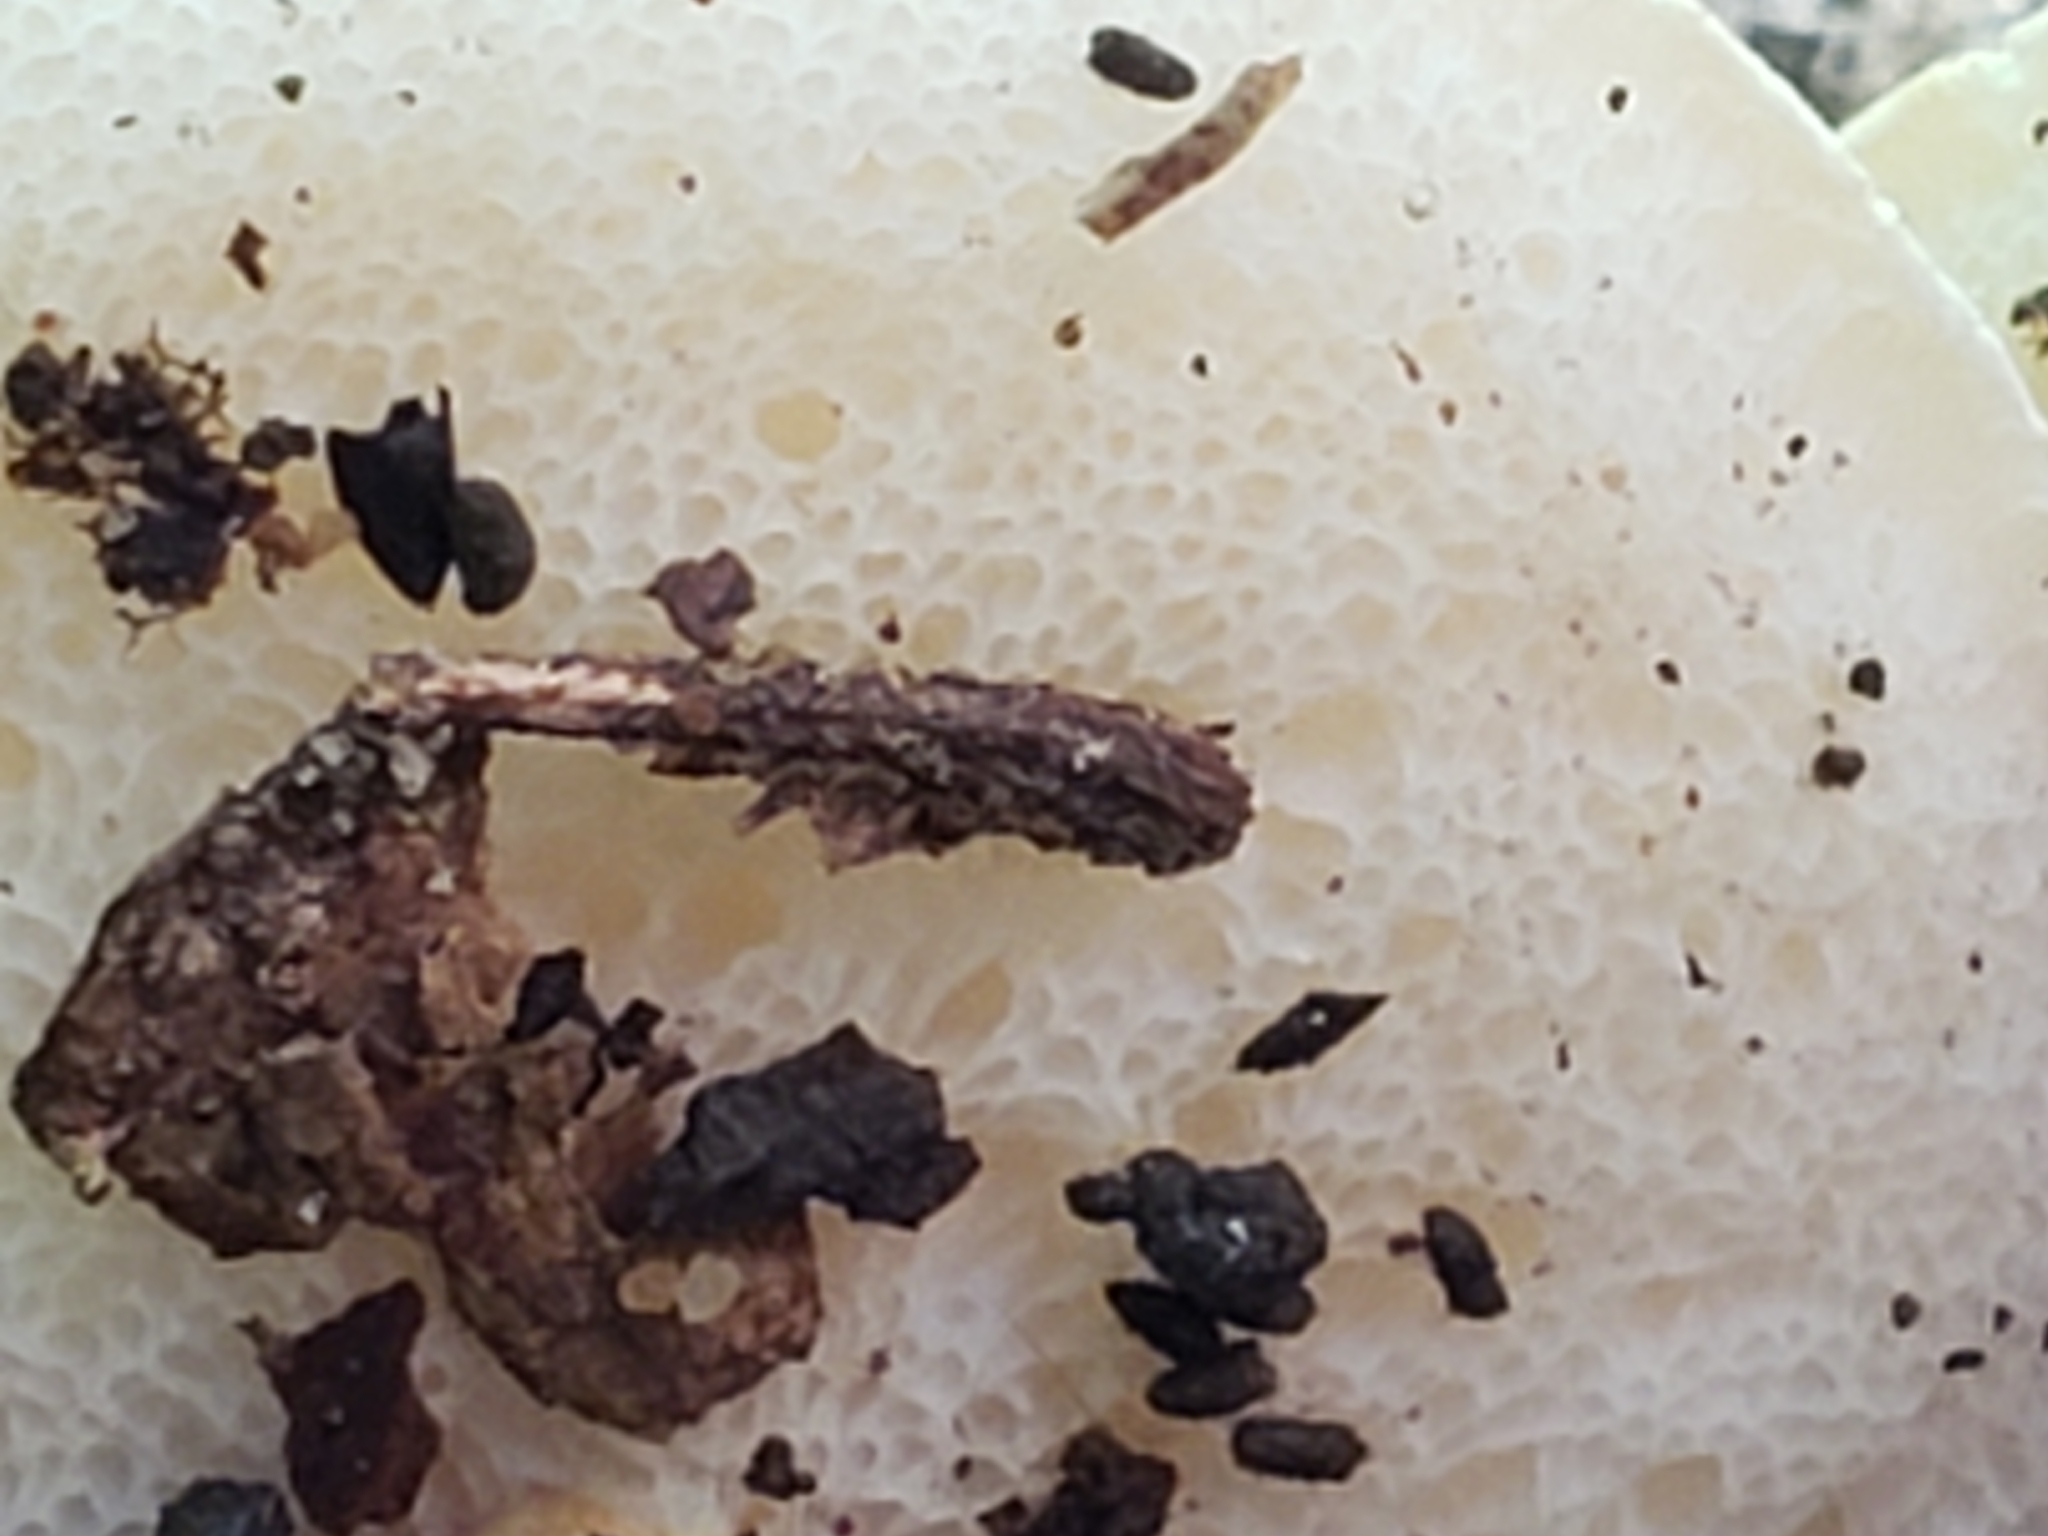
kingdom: Fungi
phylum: Basidiomycota
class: Agaricomycetes
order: Boletales
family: Gyroporaceae
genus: Gyroporus
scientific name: Gyroporus castaneus
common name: Chestnut bolete
